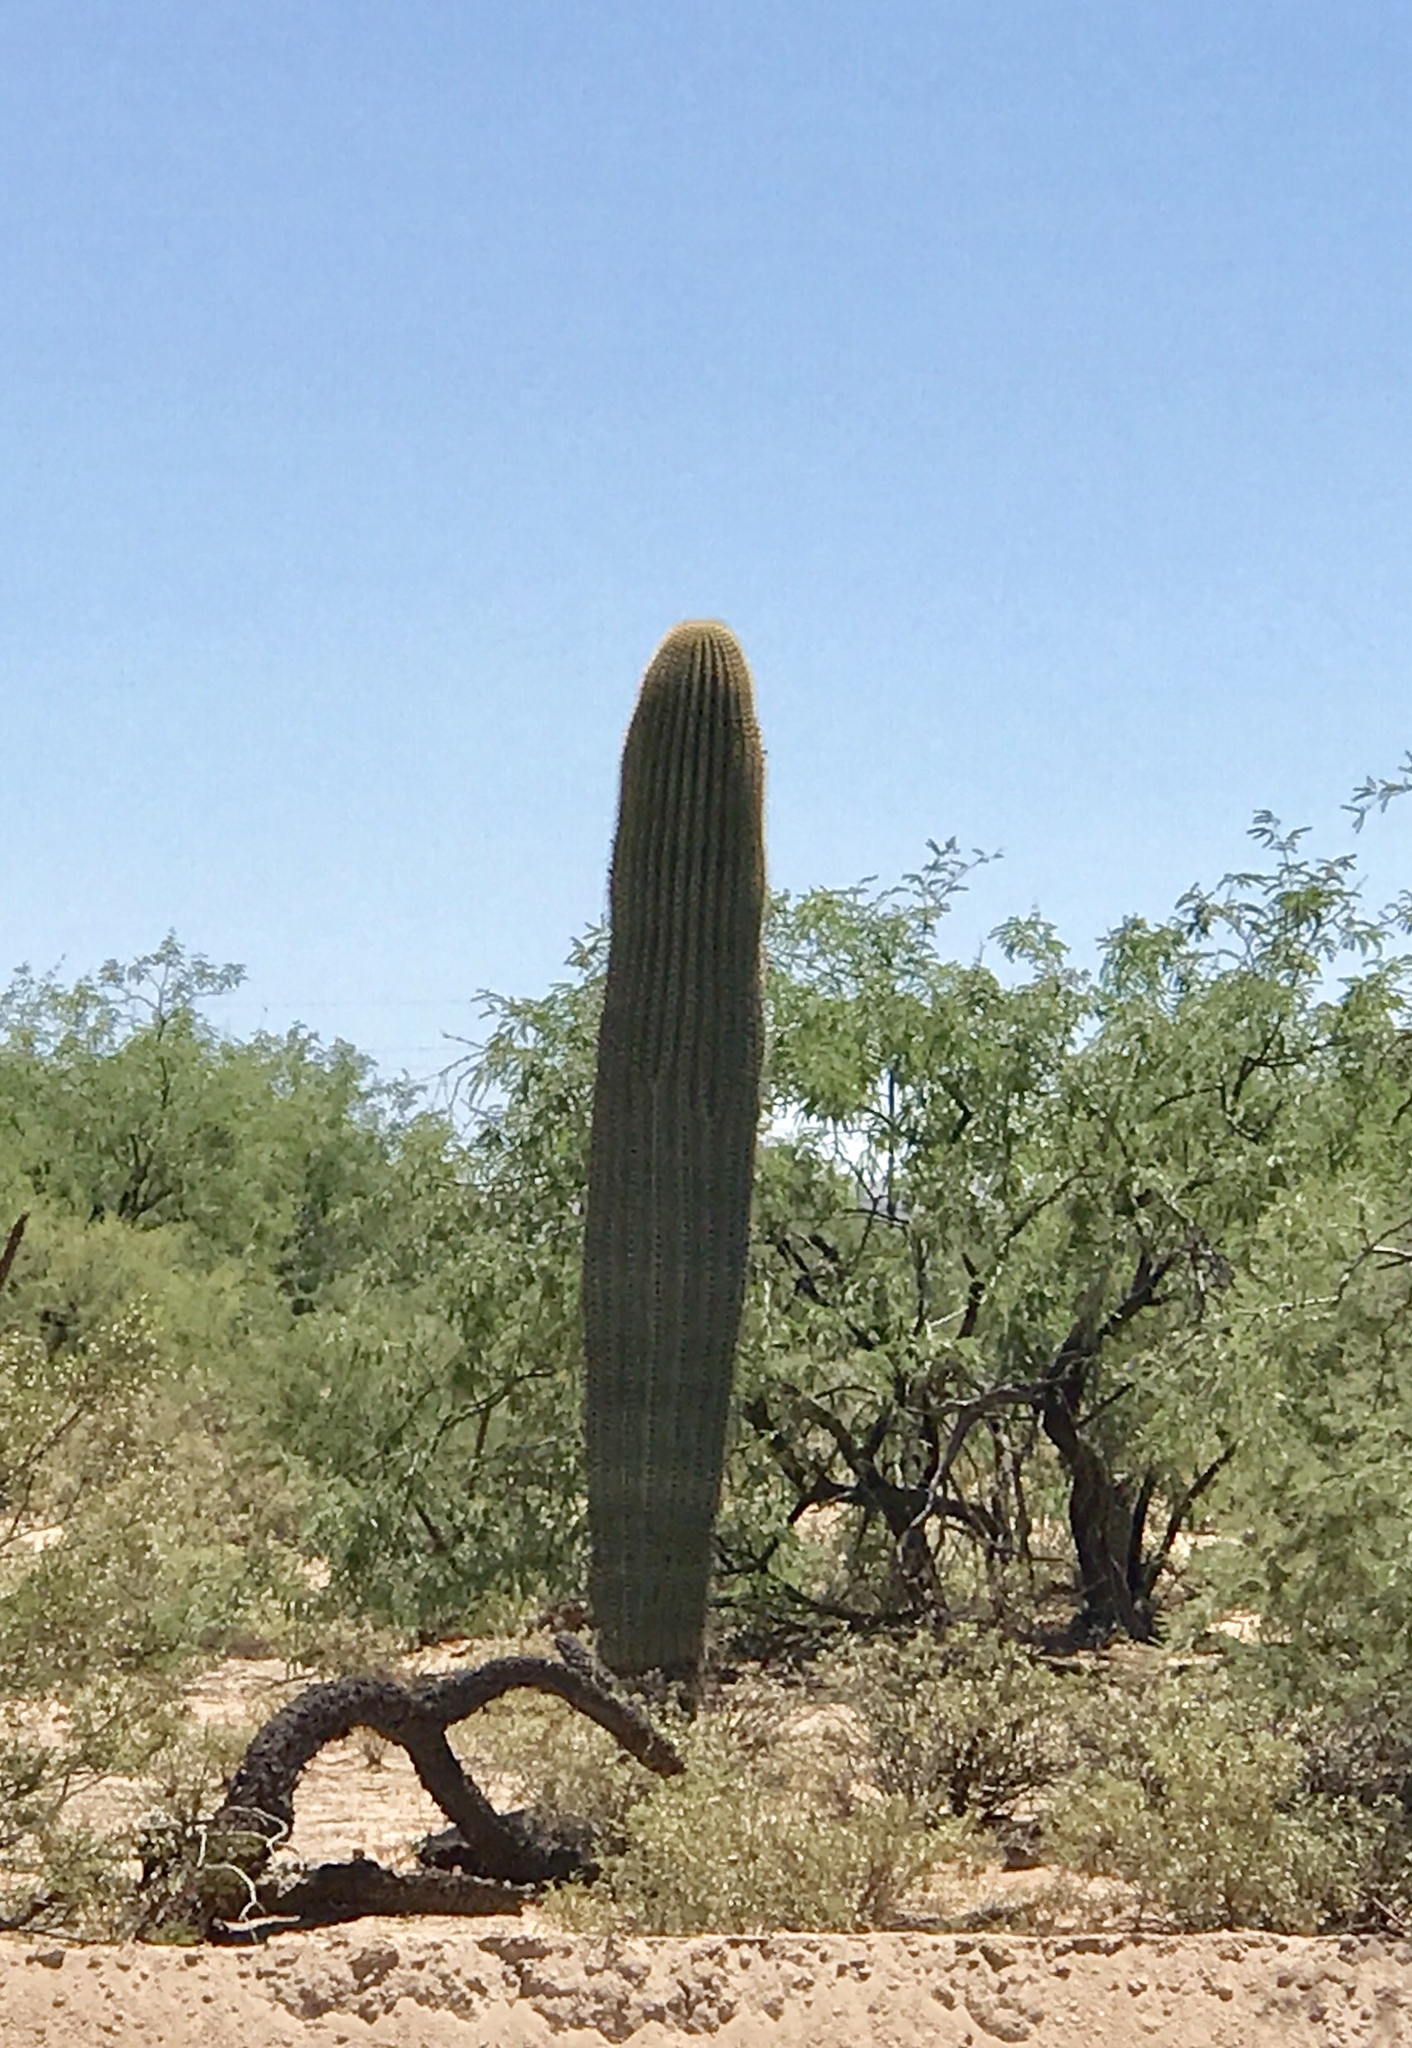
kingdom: Plantae
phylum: Tracheophyta
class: Magnoliopsida
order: Caryophyllales
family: Cactaceae
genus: Carnegiea
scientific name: Carnegiea gigantea
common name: Saguaro
